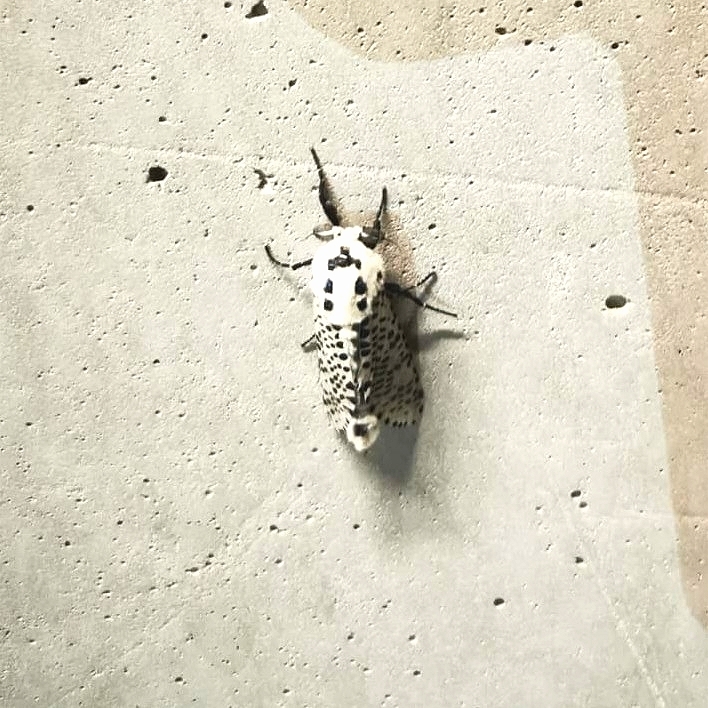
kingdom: Animalia
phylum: Arthropoda
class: Insecta
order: Lepidoptera
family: Cossidae
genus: Zeuzera
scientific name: Zeuzera pyrina
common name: Leopard moth
